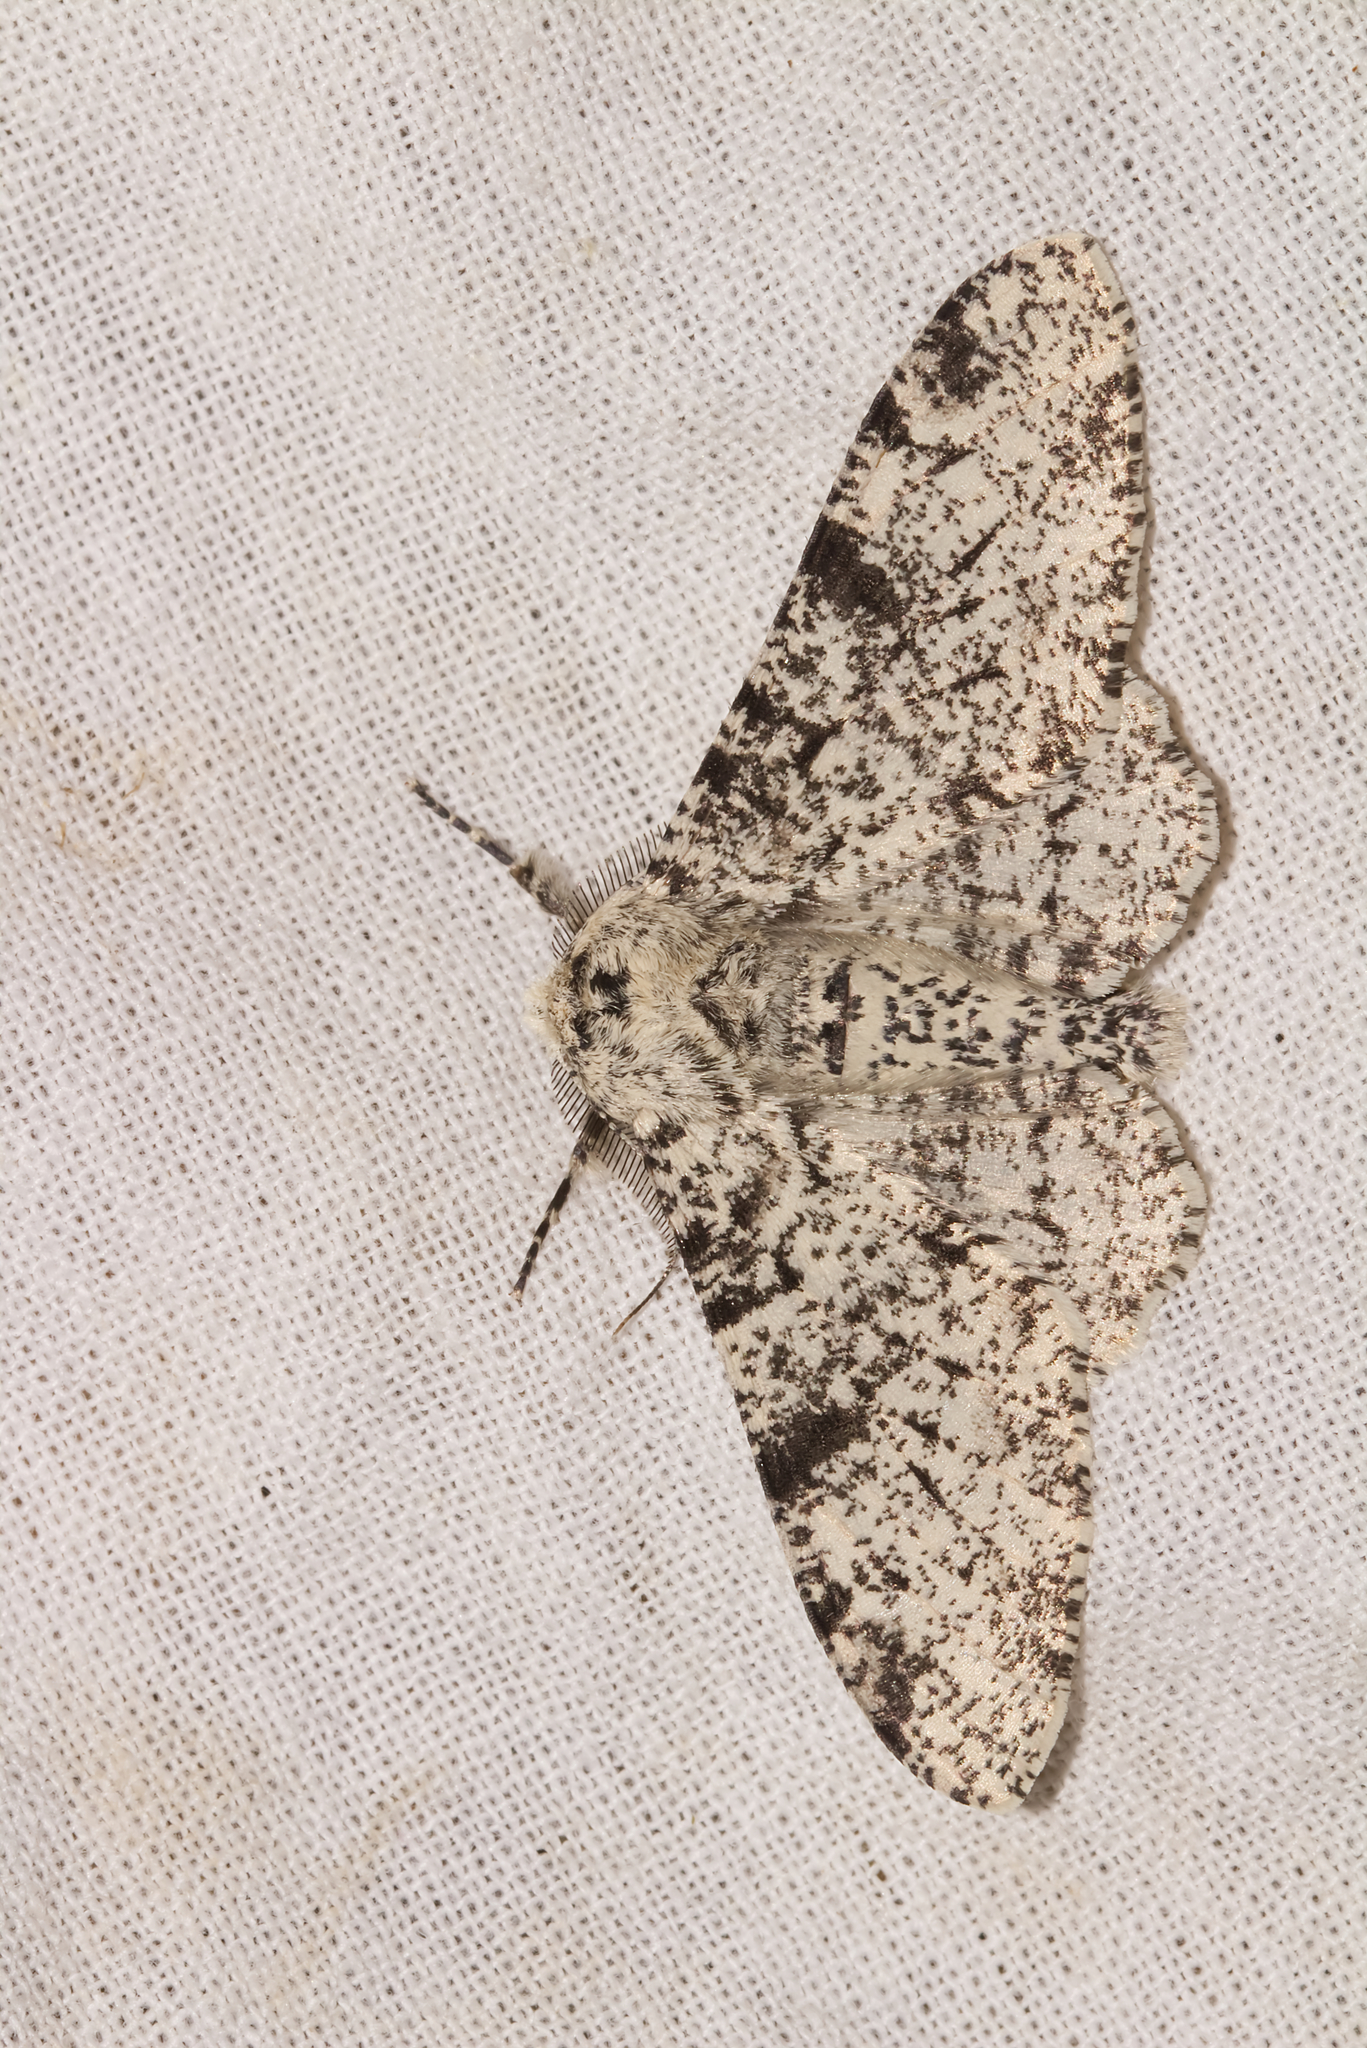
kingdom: Animalia
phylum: Arthropoda
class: Insecta
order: Lepidoptera
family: Geometridae
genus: Biston
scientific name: Biston betularia
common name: Peppered moth
